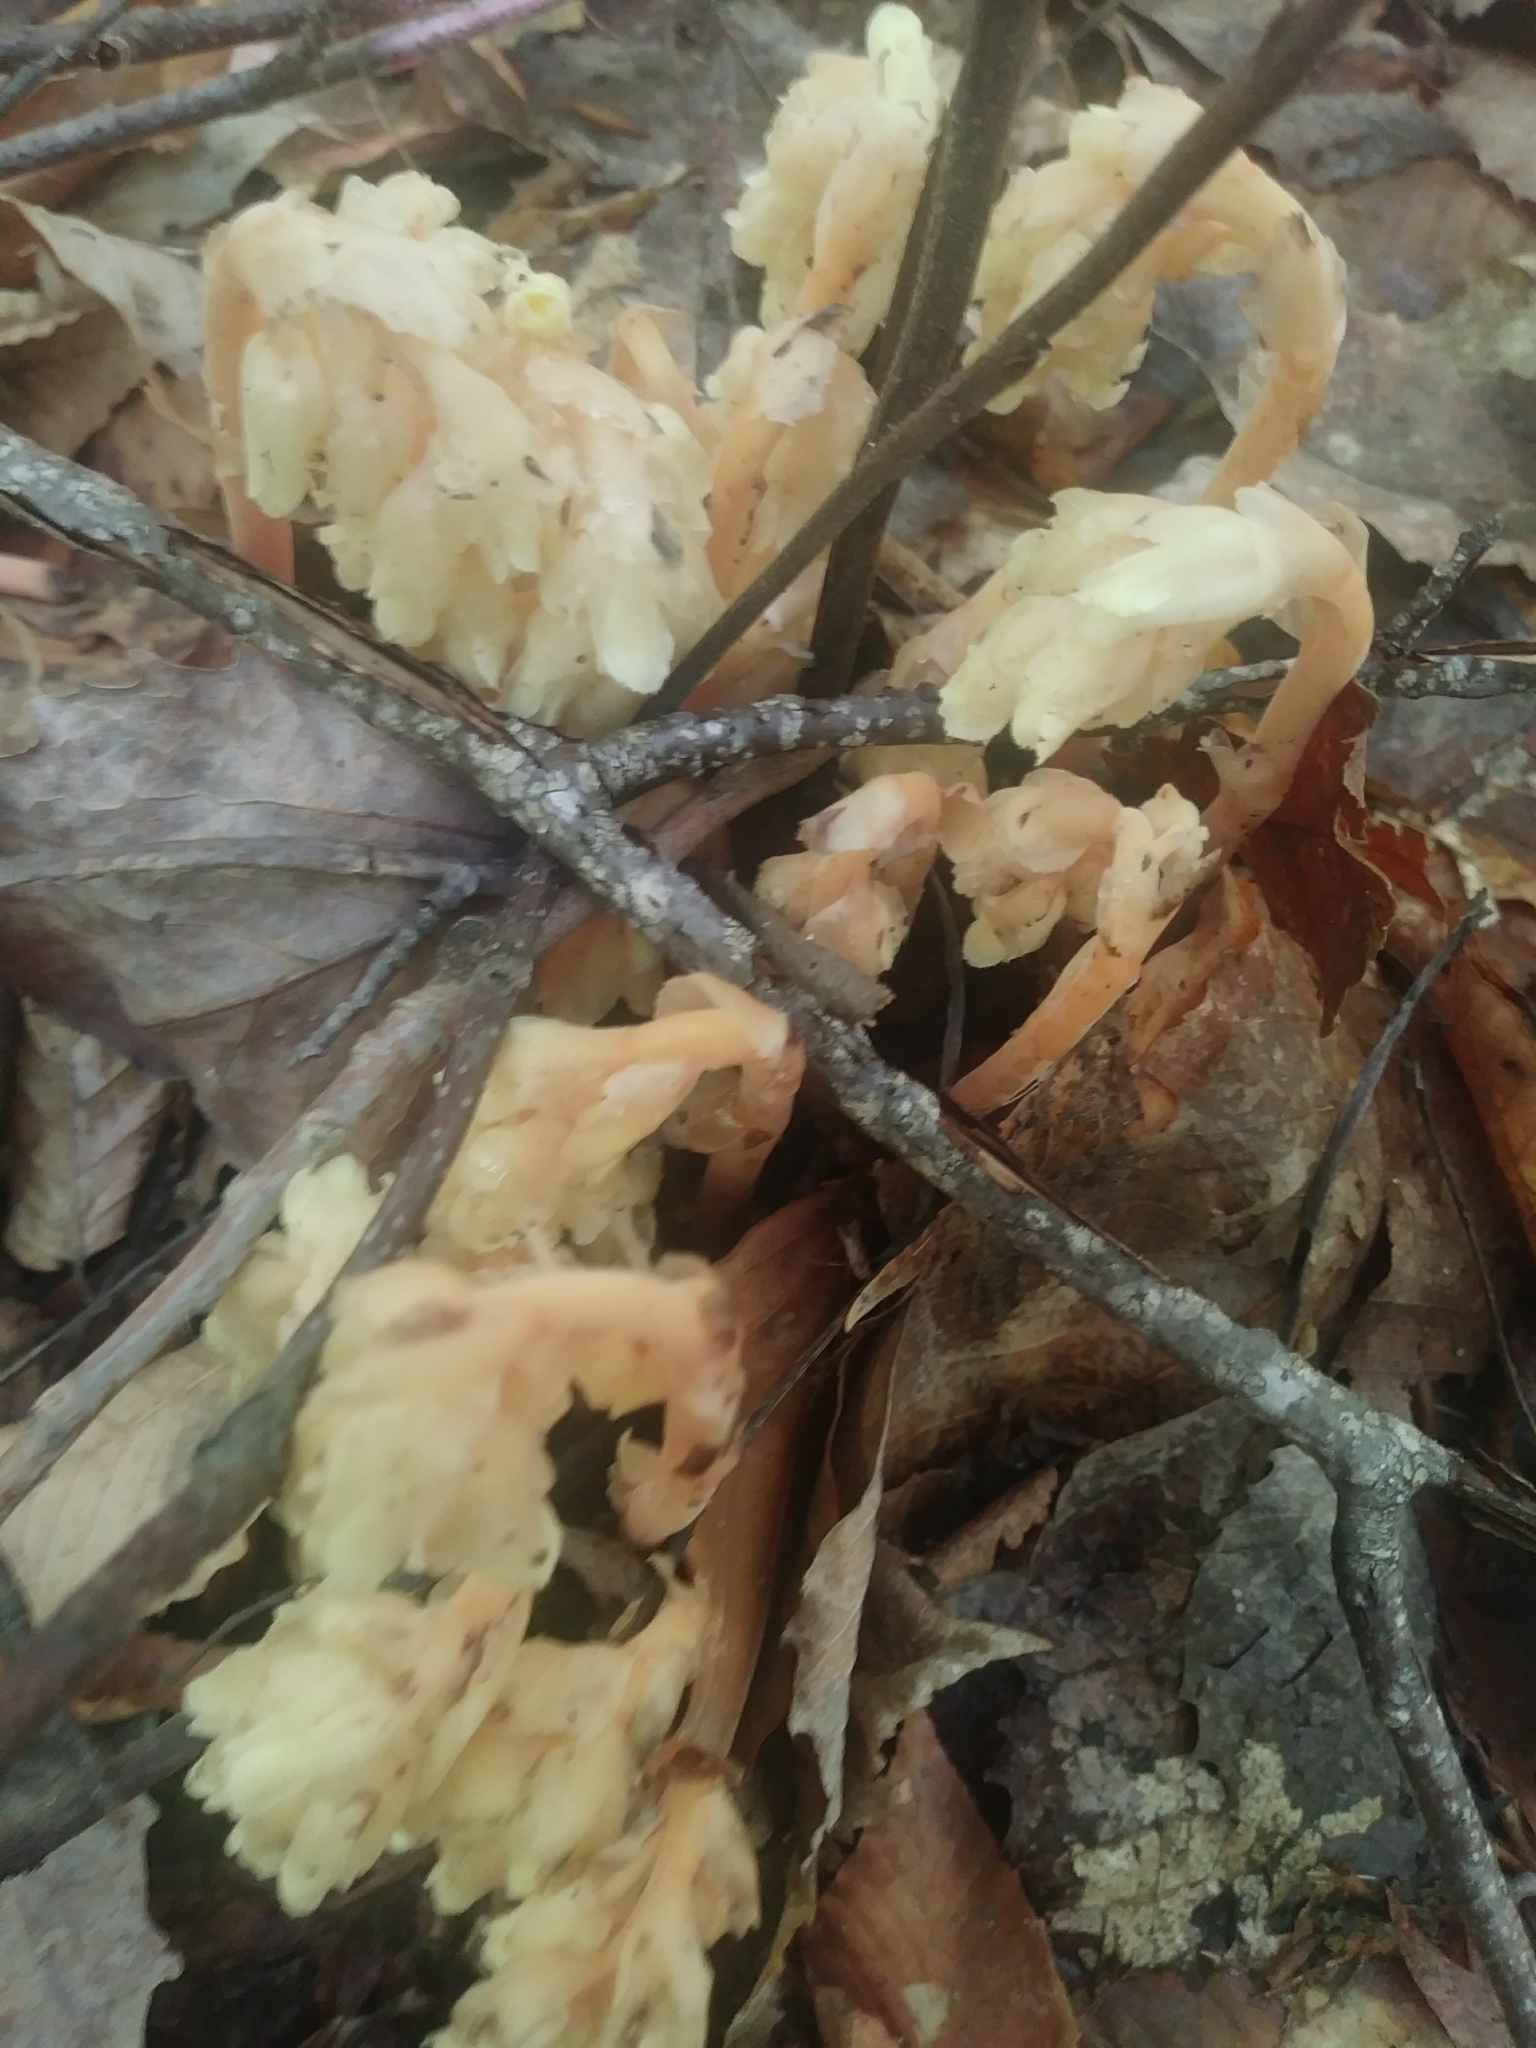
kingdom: Plantae
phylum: Tracheophyta
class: Magnoliopsida
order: Ericales
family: Ericaceae
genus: Hypopitys
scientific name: Hypopitys monotropa
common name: Yellow bird's-nest
